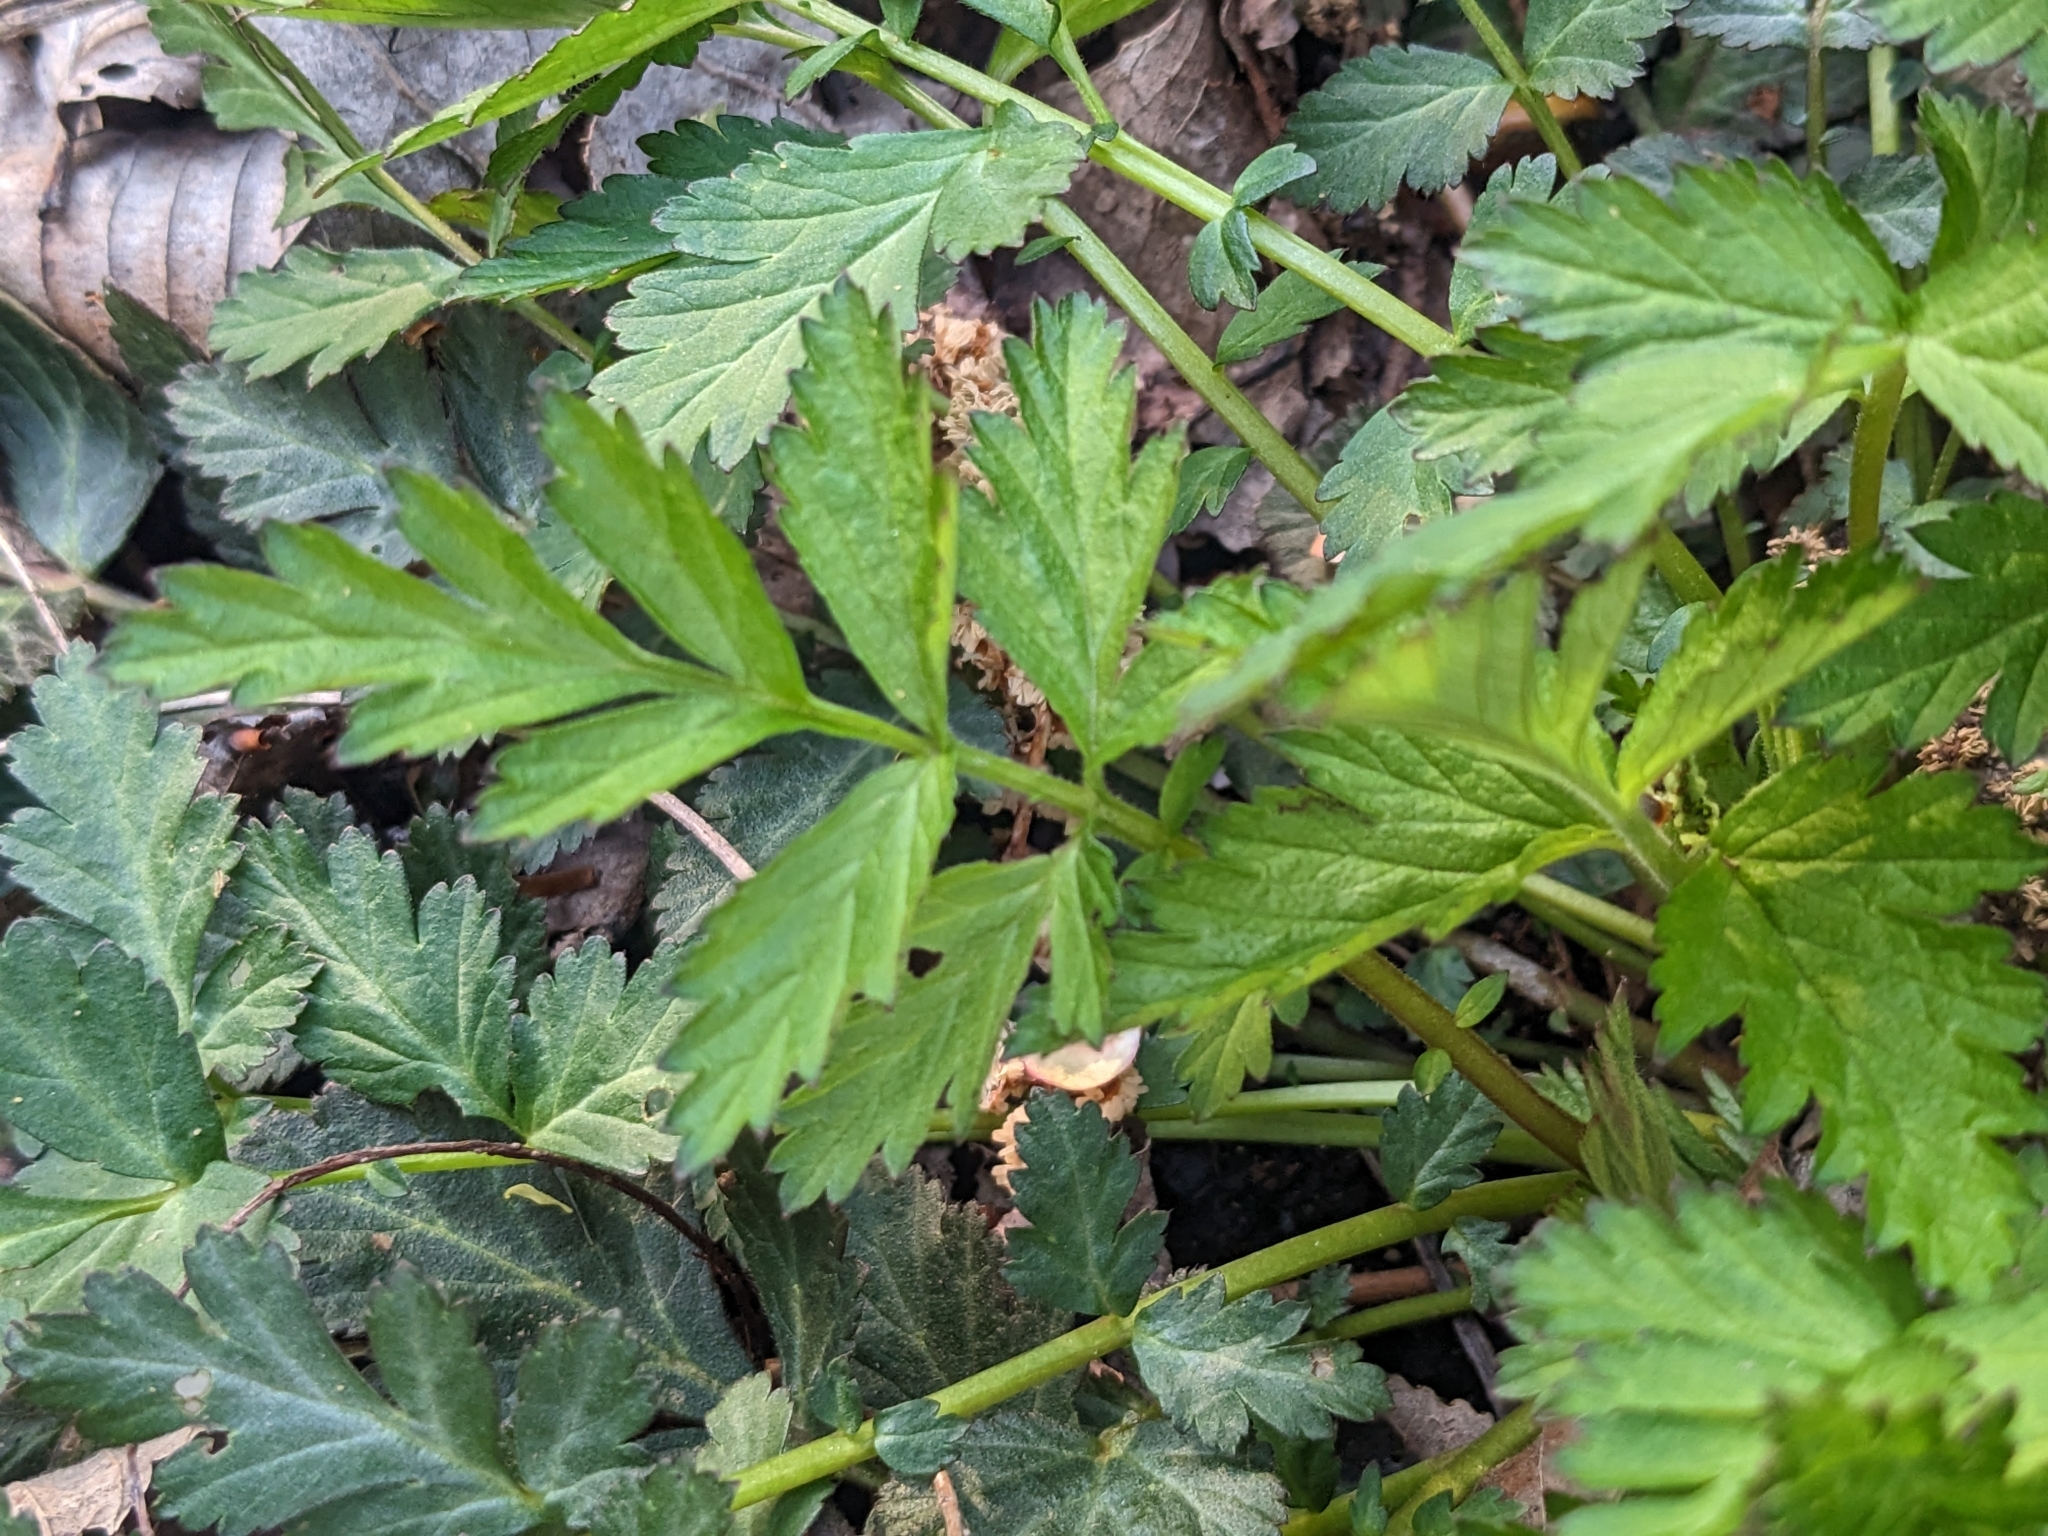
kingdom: Plantae
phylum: Tracheophyta
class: Magnoliopsida
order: Rosales
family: Rosaceae
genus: Geum
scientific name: Geum canadense
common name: White avens
